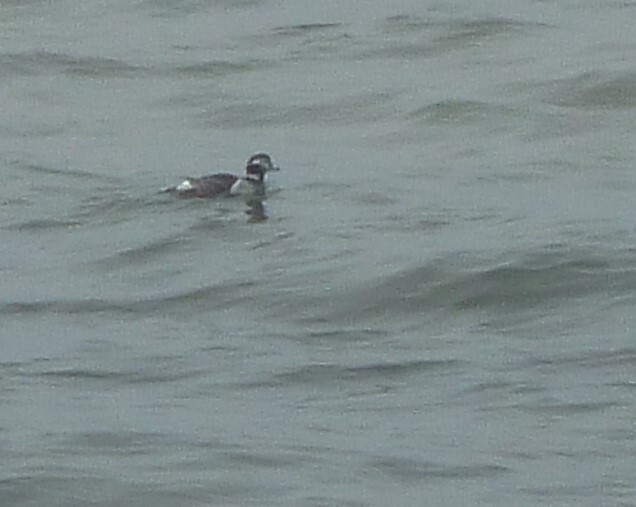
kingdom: Animalia
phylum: Chordata
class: Aves
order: Anseriformes
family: Anatidae
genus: Clangula
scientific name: Clangula hyemalis
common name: Long-tailed duck
